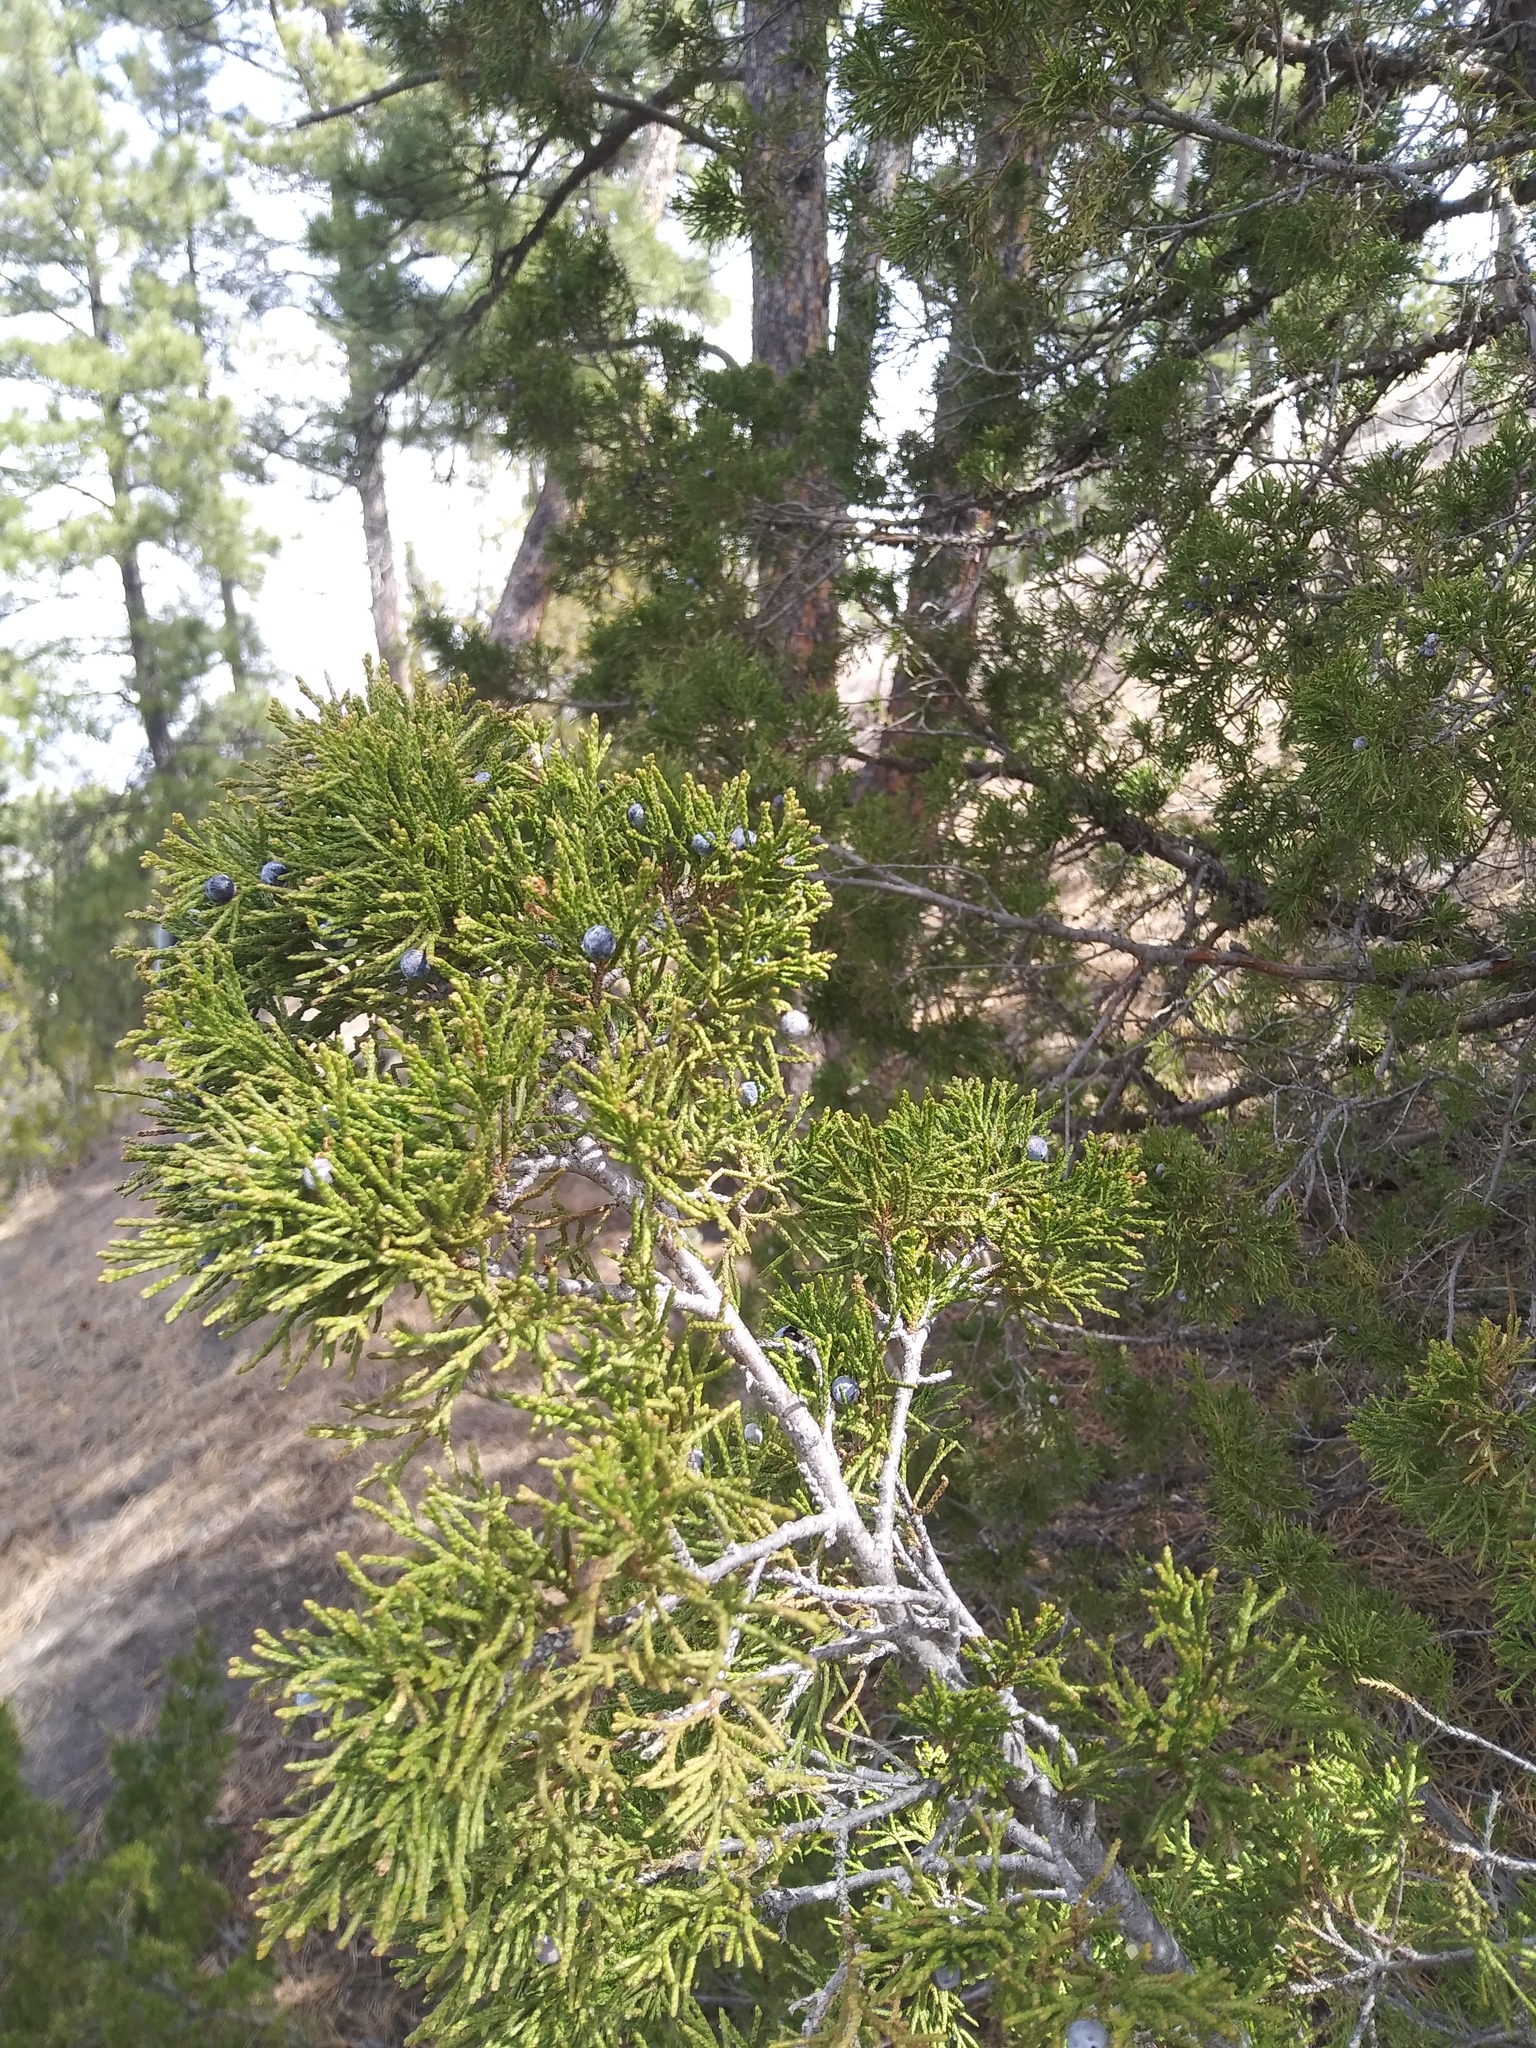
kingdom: Plantae
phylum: Tracheophyta
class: Pinopsida
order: Pinales
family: Cupressaceae
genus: Juniperus
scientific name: Juniperus scopulorum
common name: Rocky mountain juniper
